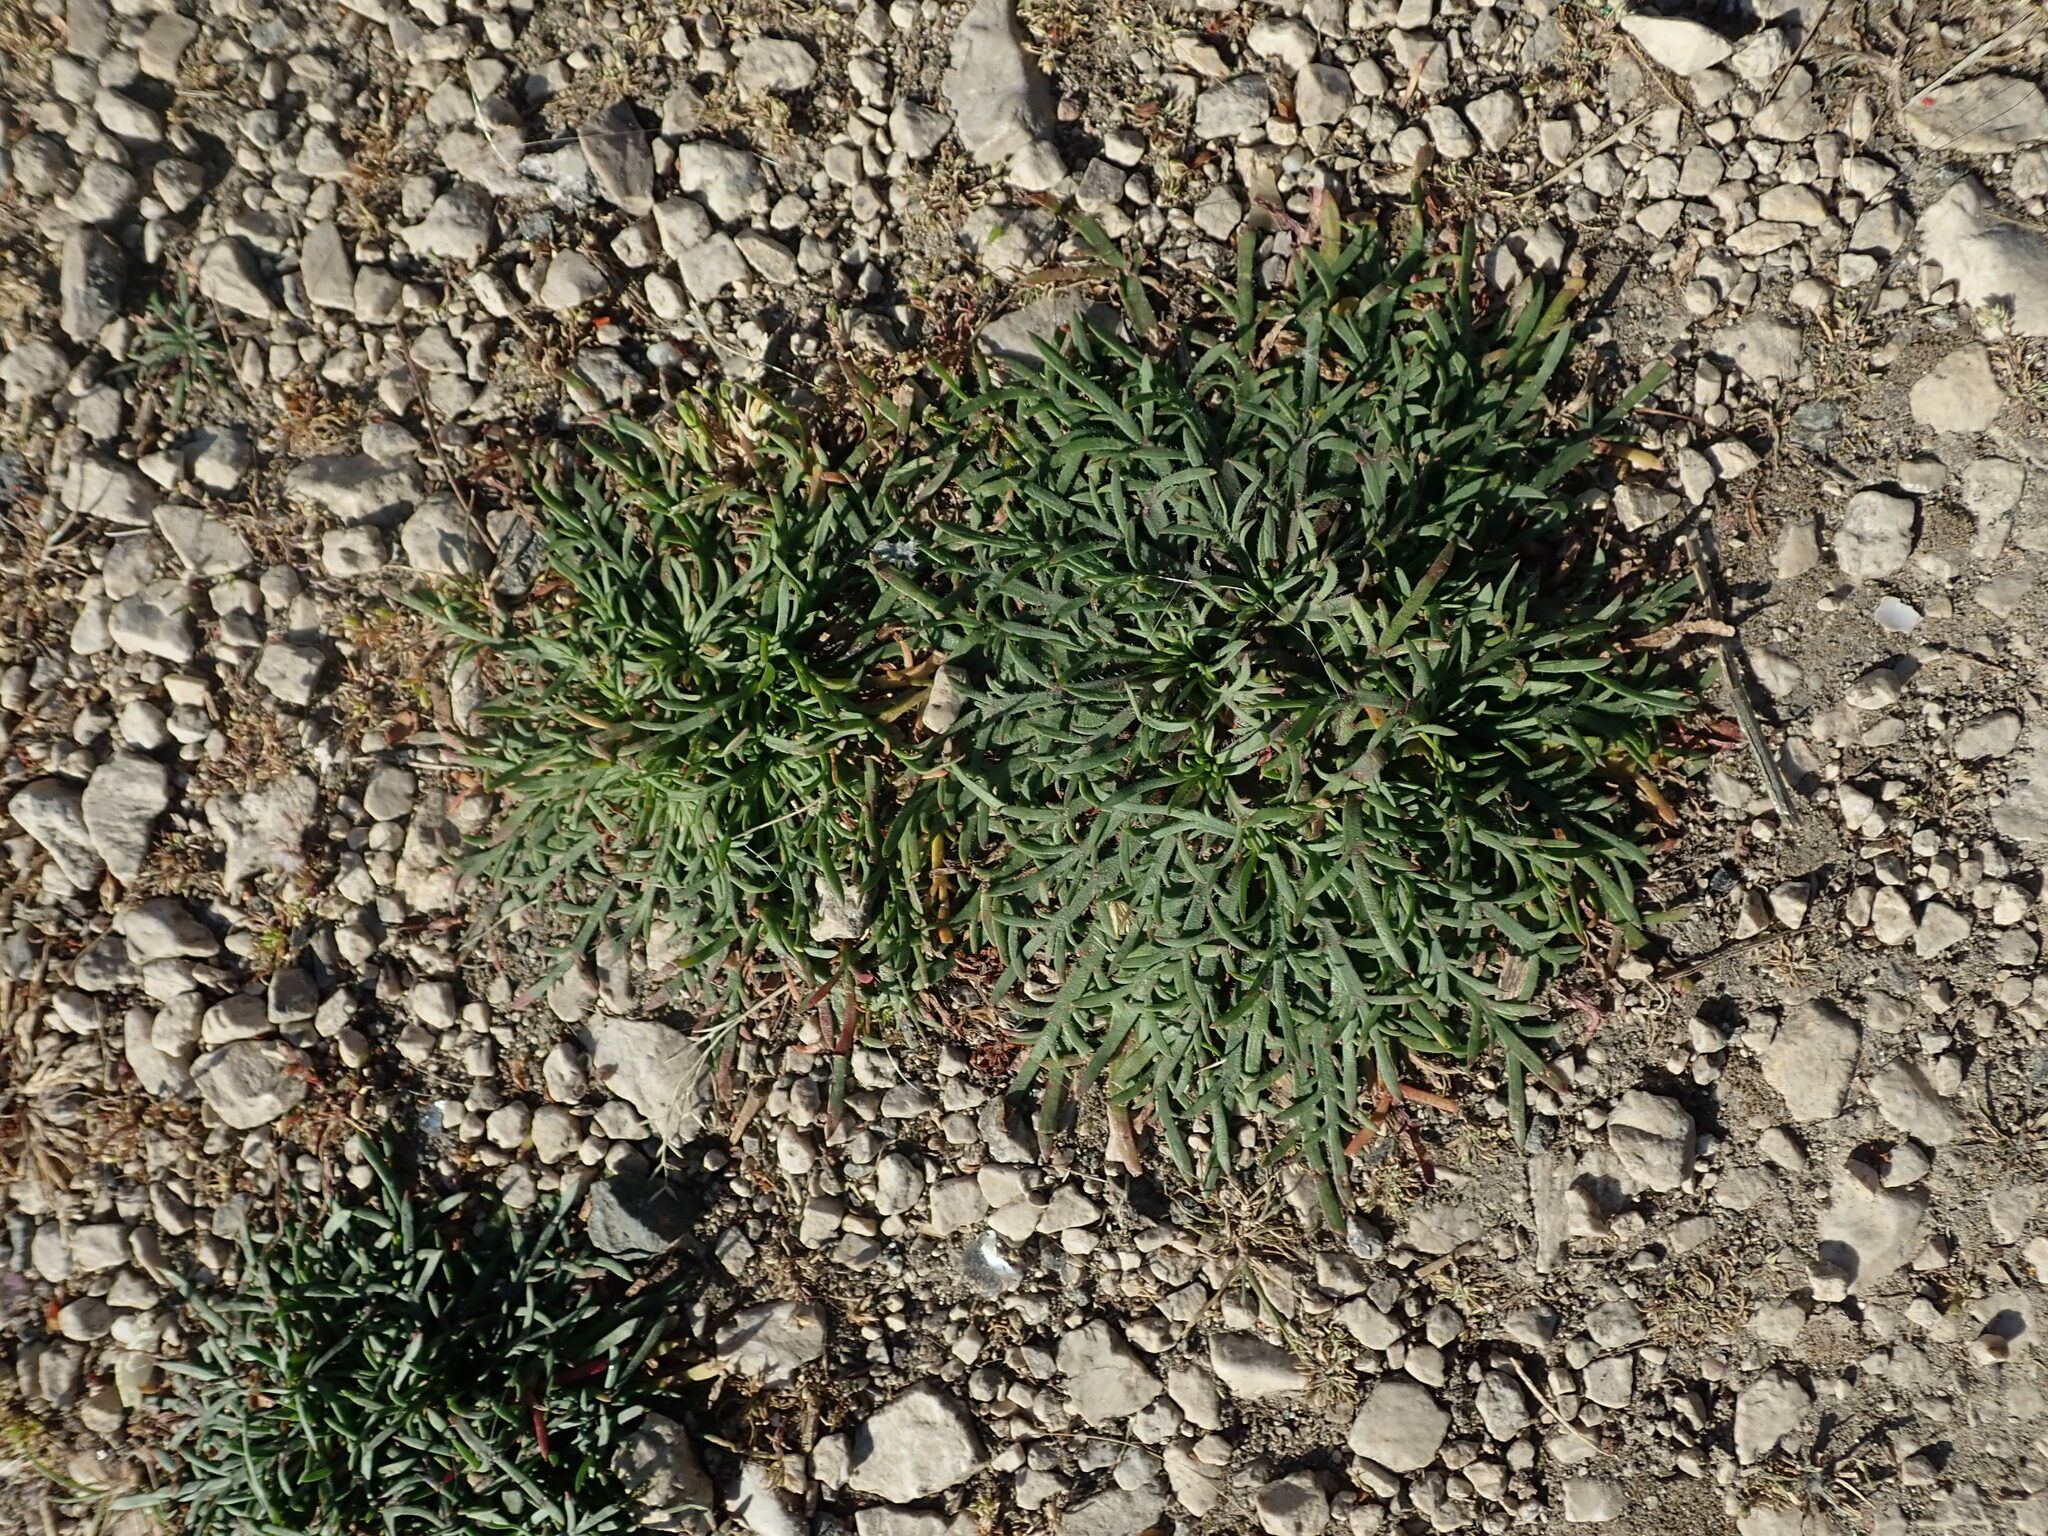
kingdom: Plantae
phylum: Tracheophyta
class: Magnoliopsida
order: Lamiales
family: Plantaginaceae
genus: Plantago
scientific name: Plantago coronopus
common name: Buck's-horn plantain
